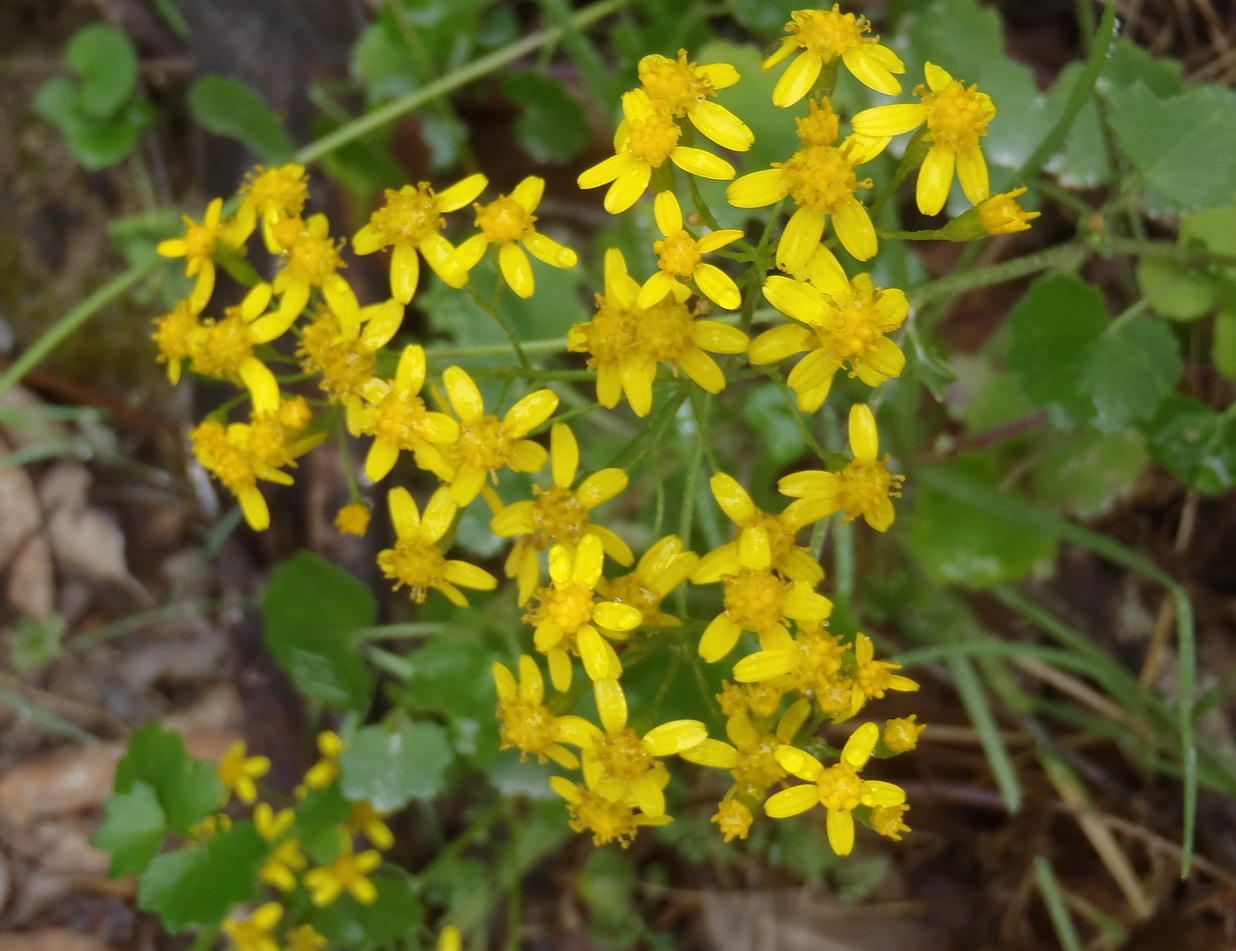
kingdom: Plantae
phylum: Tracheophyta
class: Magnoliopsida
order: Asterales
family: Asteraceae
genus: Cineraria
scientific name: Cineraria geifolia
